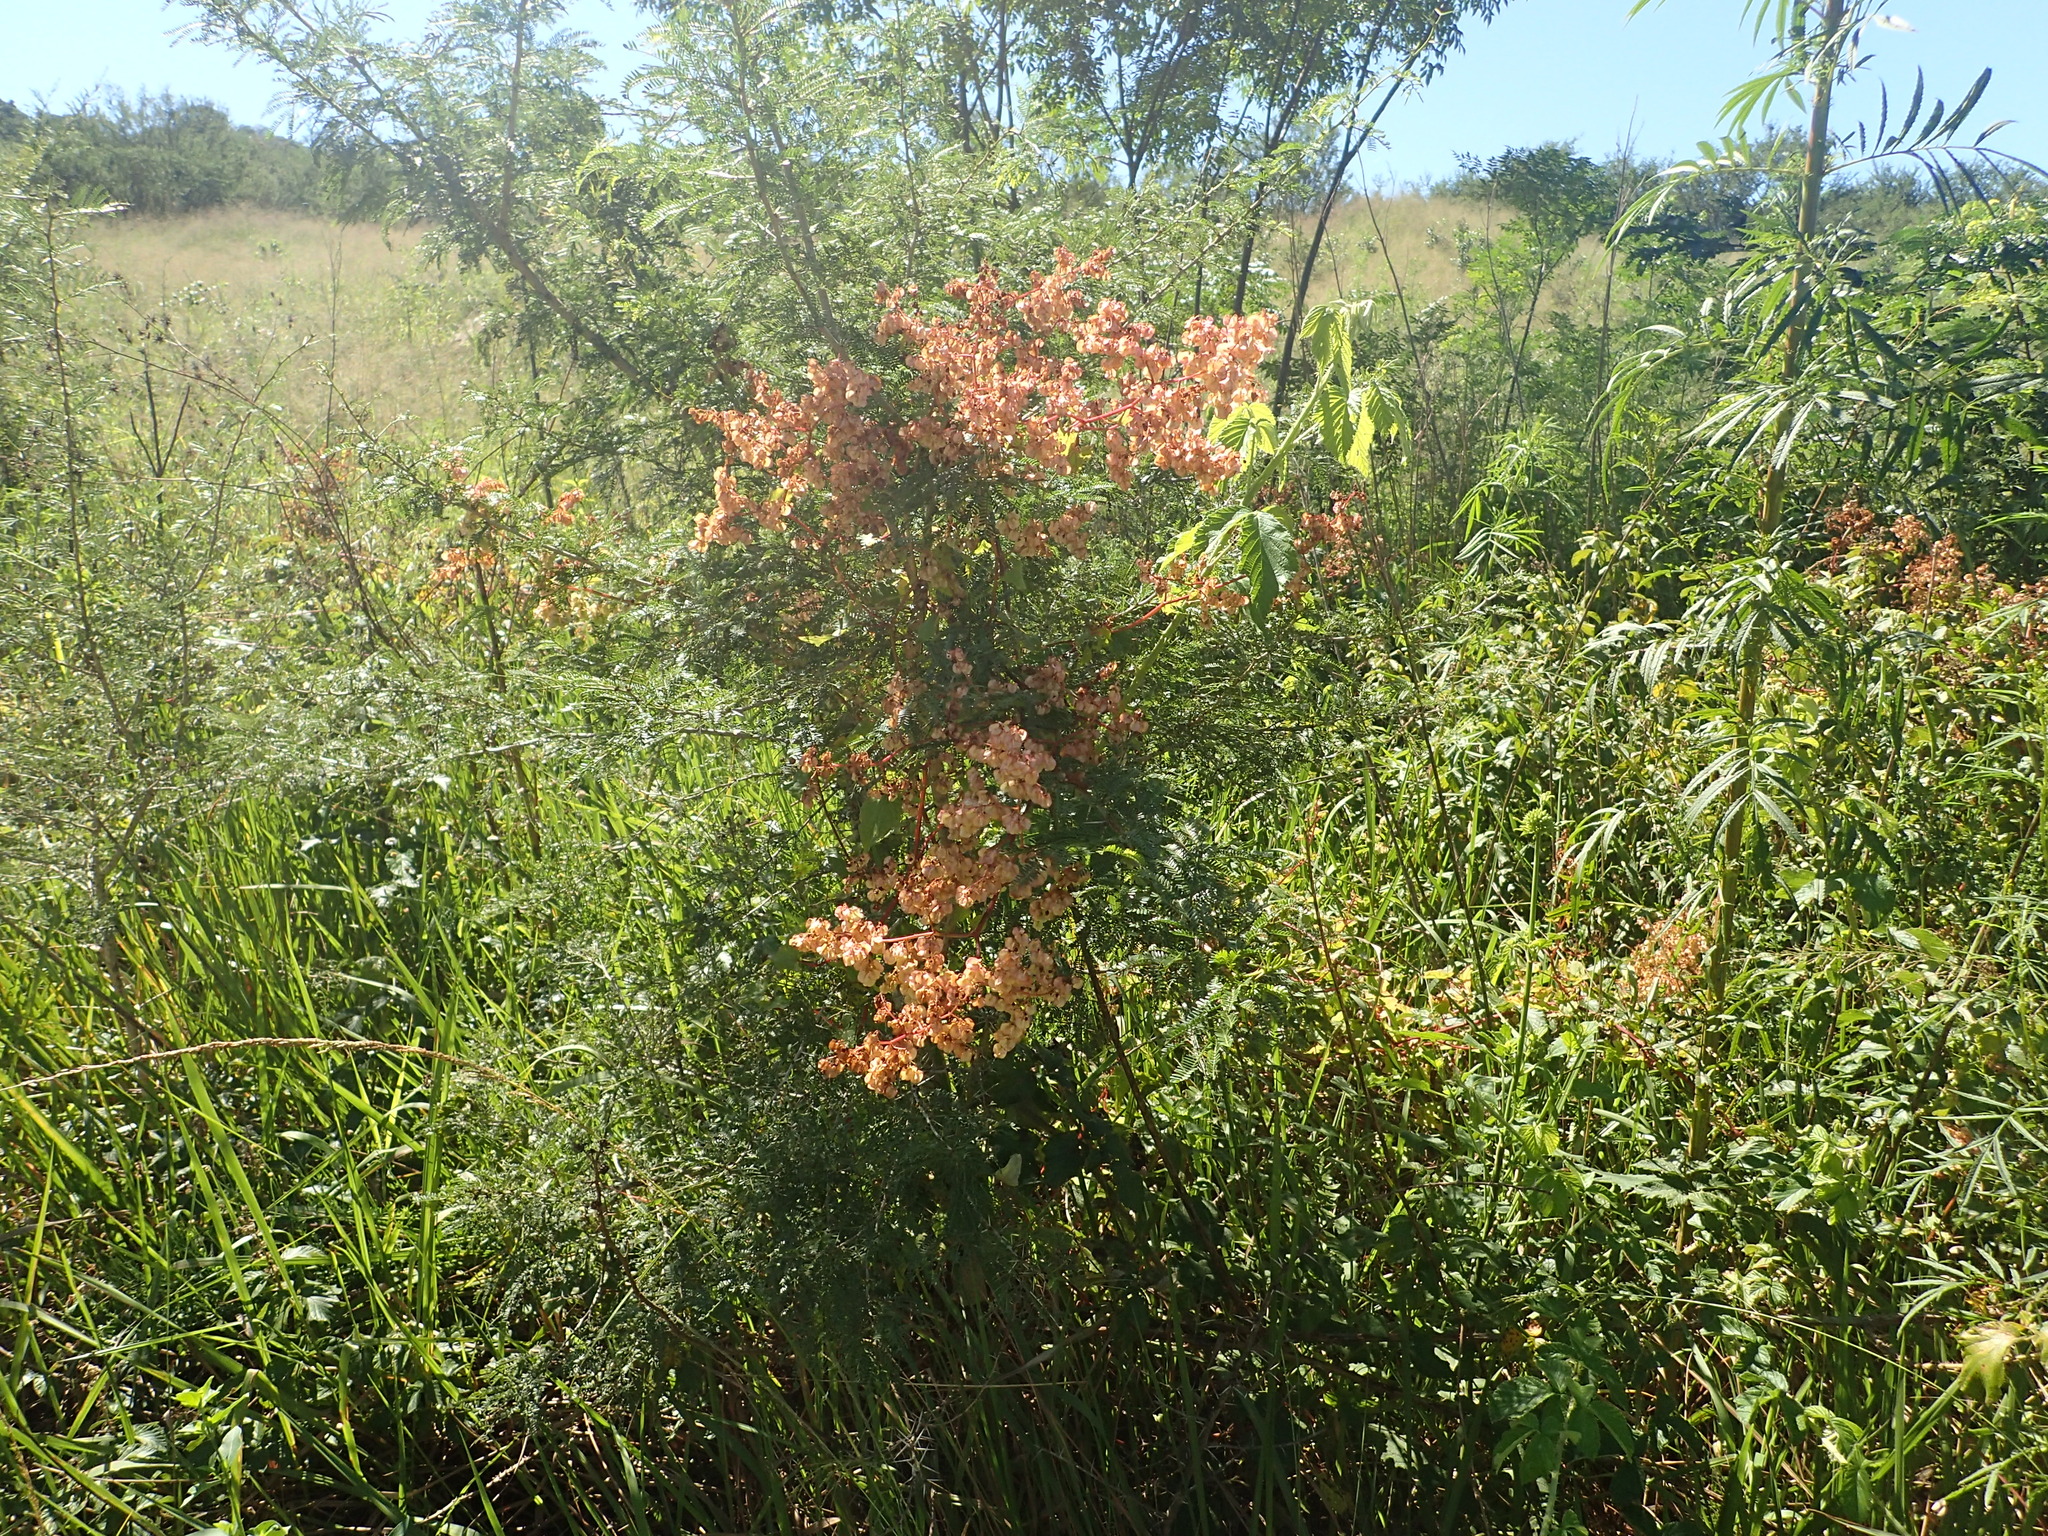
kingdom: Plantae
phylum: Tracheophyta
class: Magnoliopsida
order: Caryophyllales
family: Polygonaceae
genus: Rumex
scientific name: Rumex sagittatus
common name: Climbing dock
